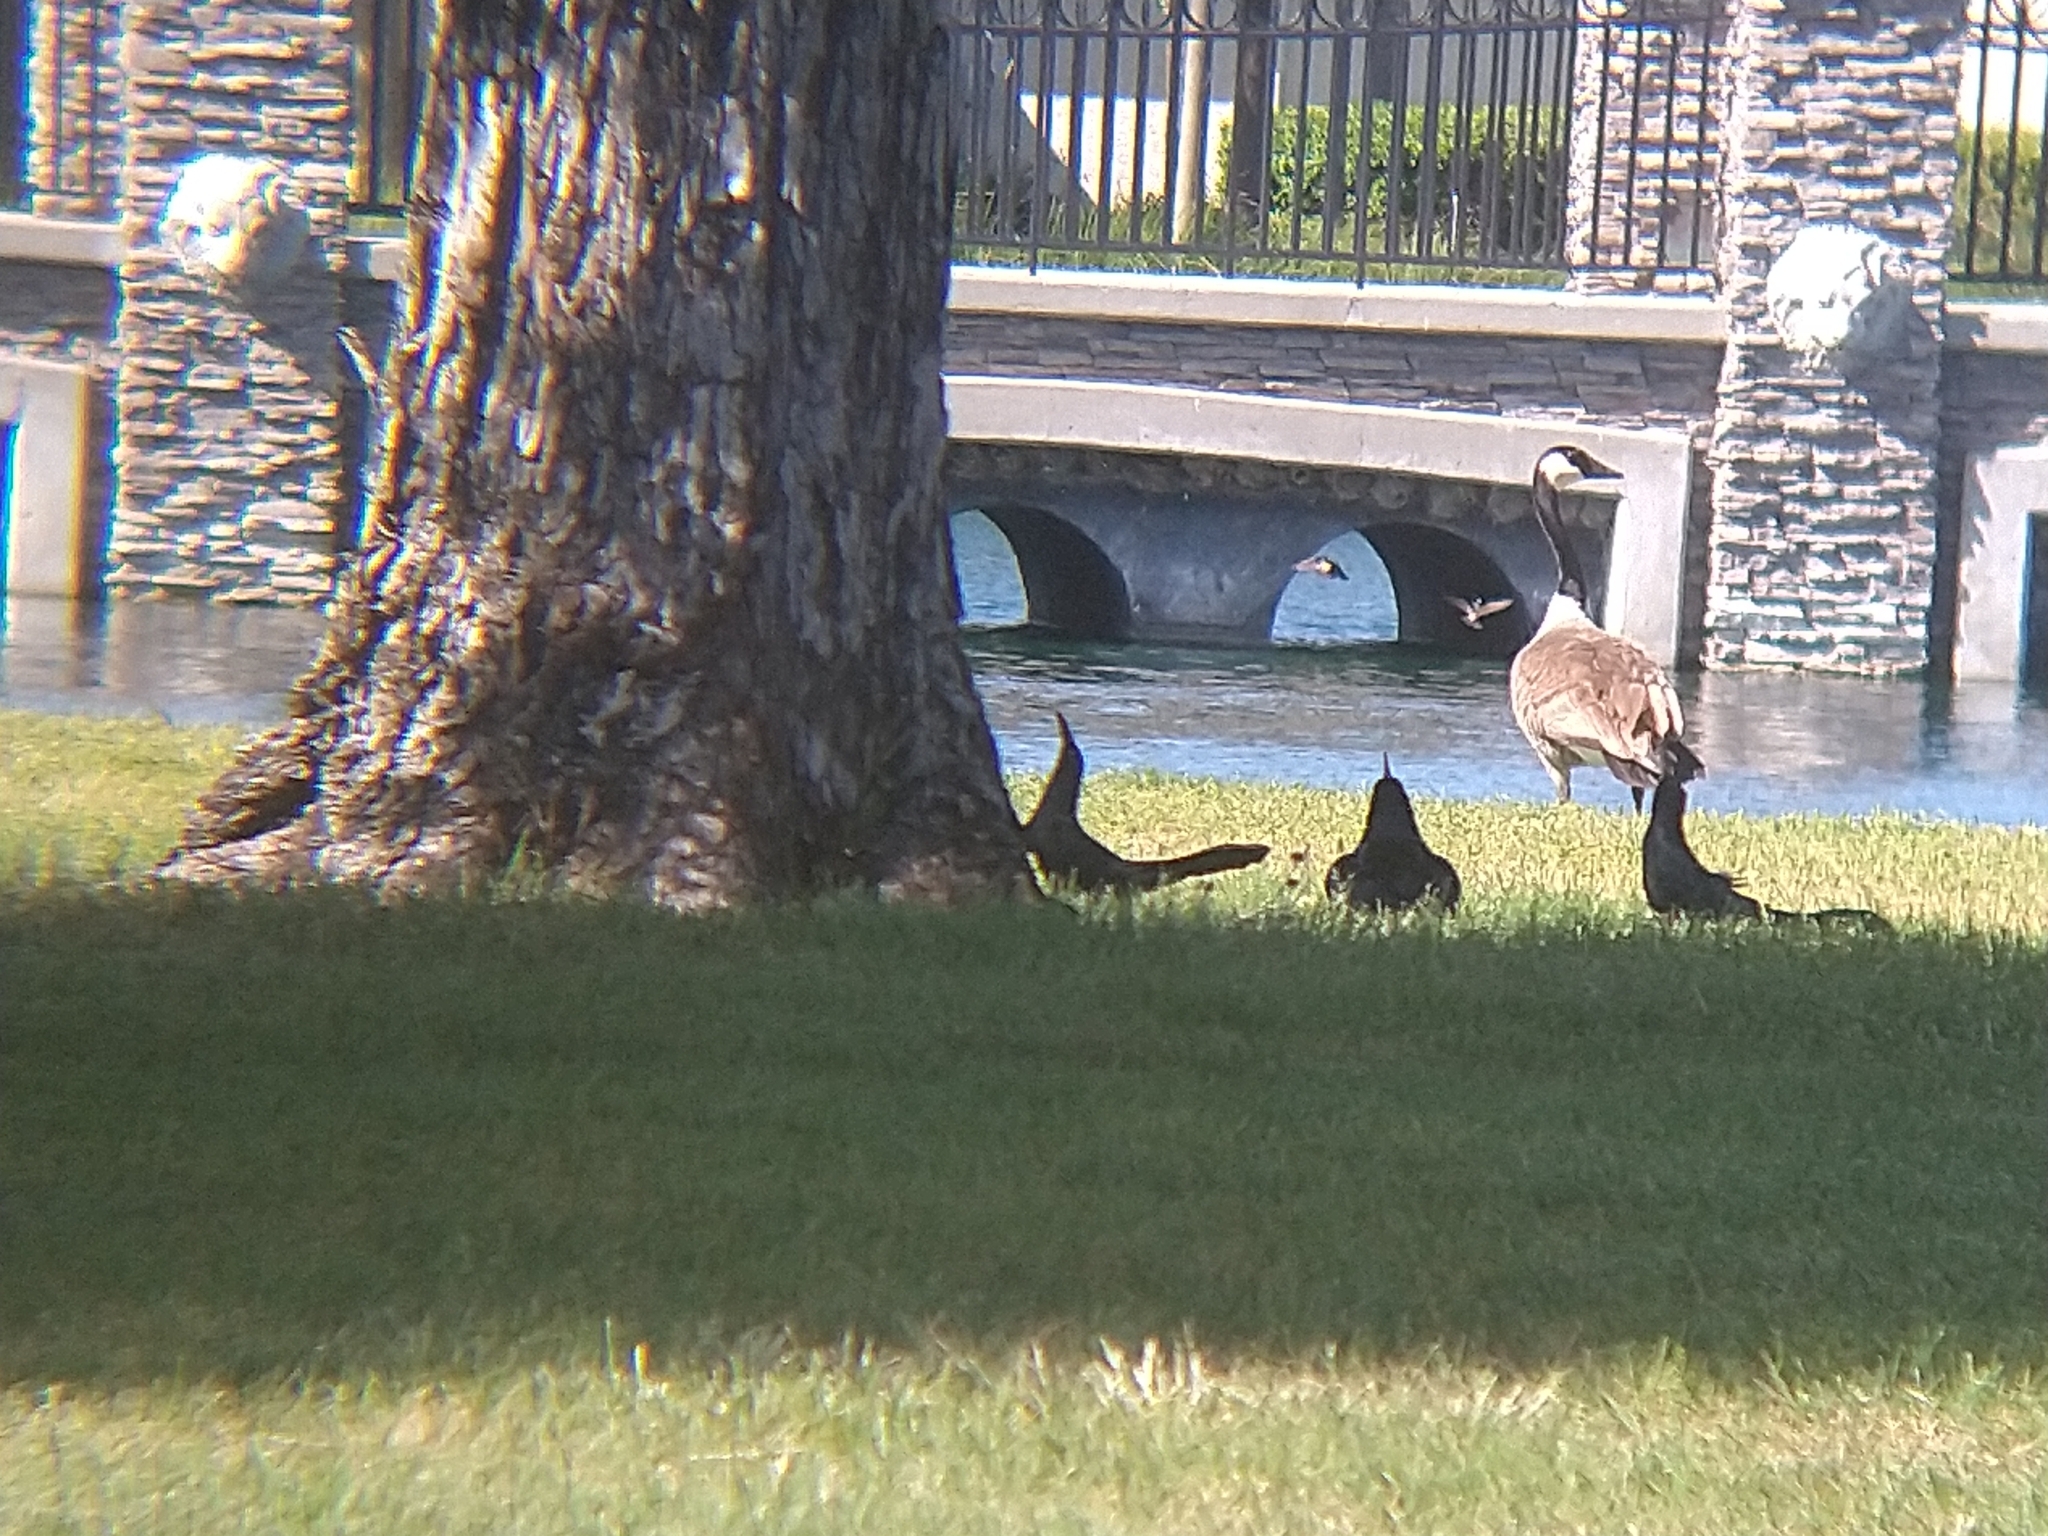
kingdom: Animalia
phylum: Chordata
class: Aves
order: Passeriformes
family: Icteridae
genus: Quiscalus
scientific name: Quiscalus mexicanus
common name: Great-tailed grackle
